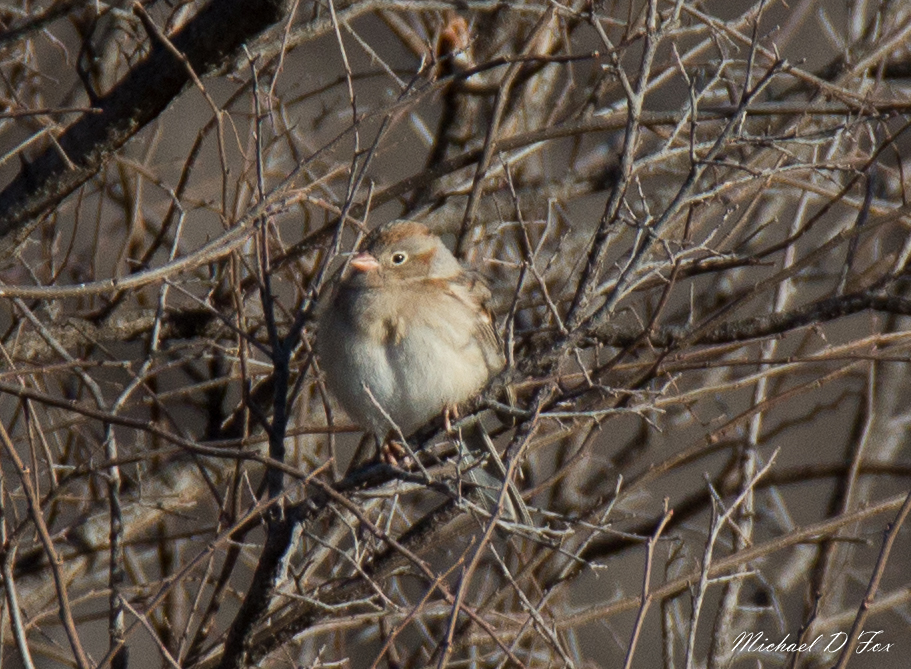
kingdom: Animalia
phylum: Chordata
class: Aves
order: Passeriformes
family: Passerellidae
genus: Spizella
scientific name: Spizella pusilla
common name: Field sparrow
